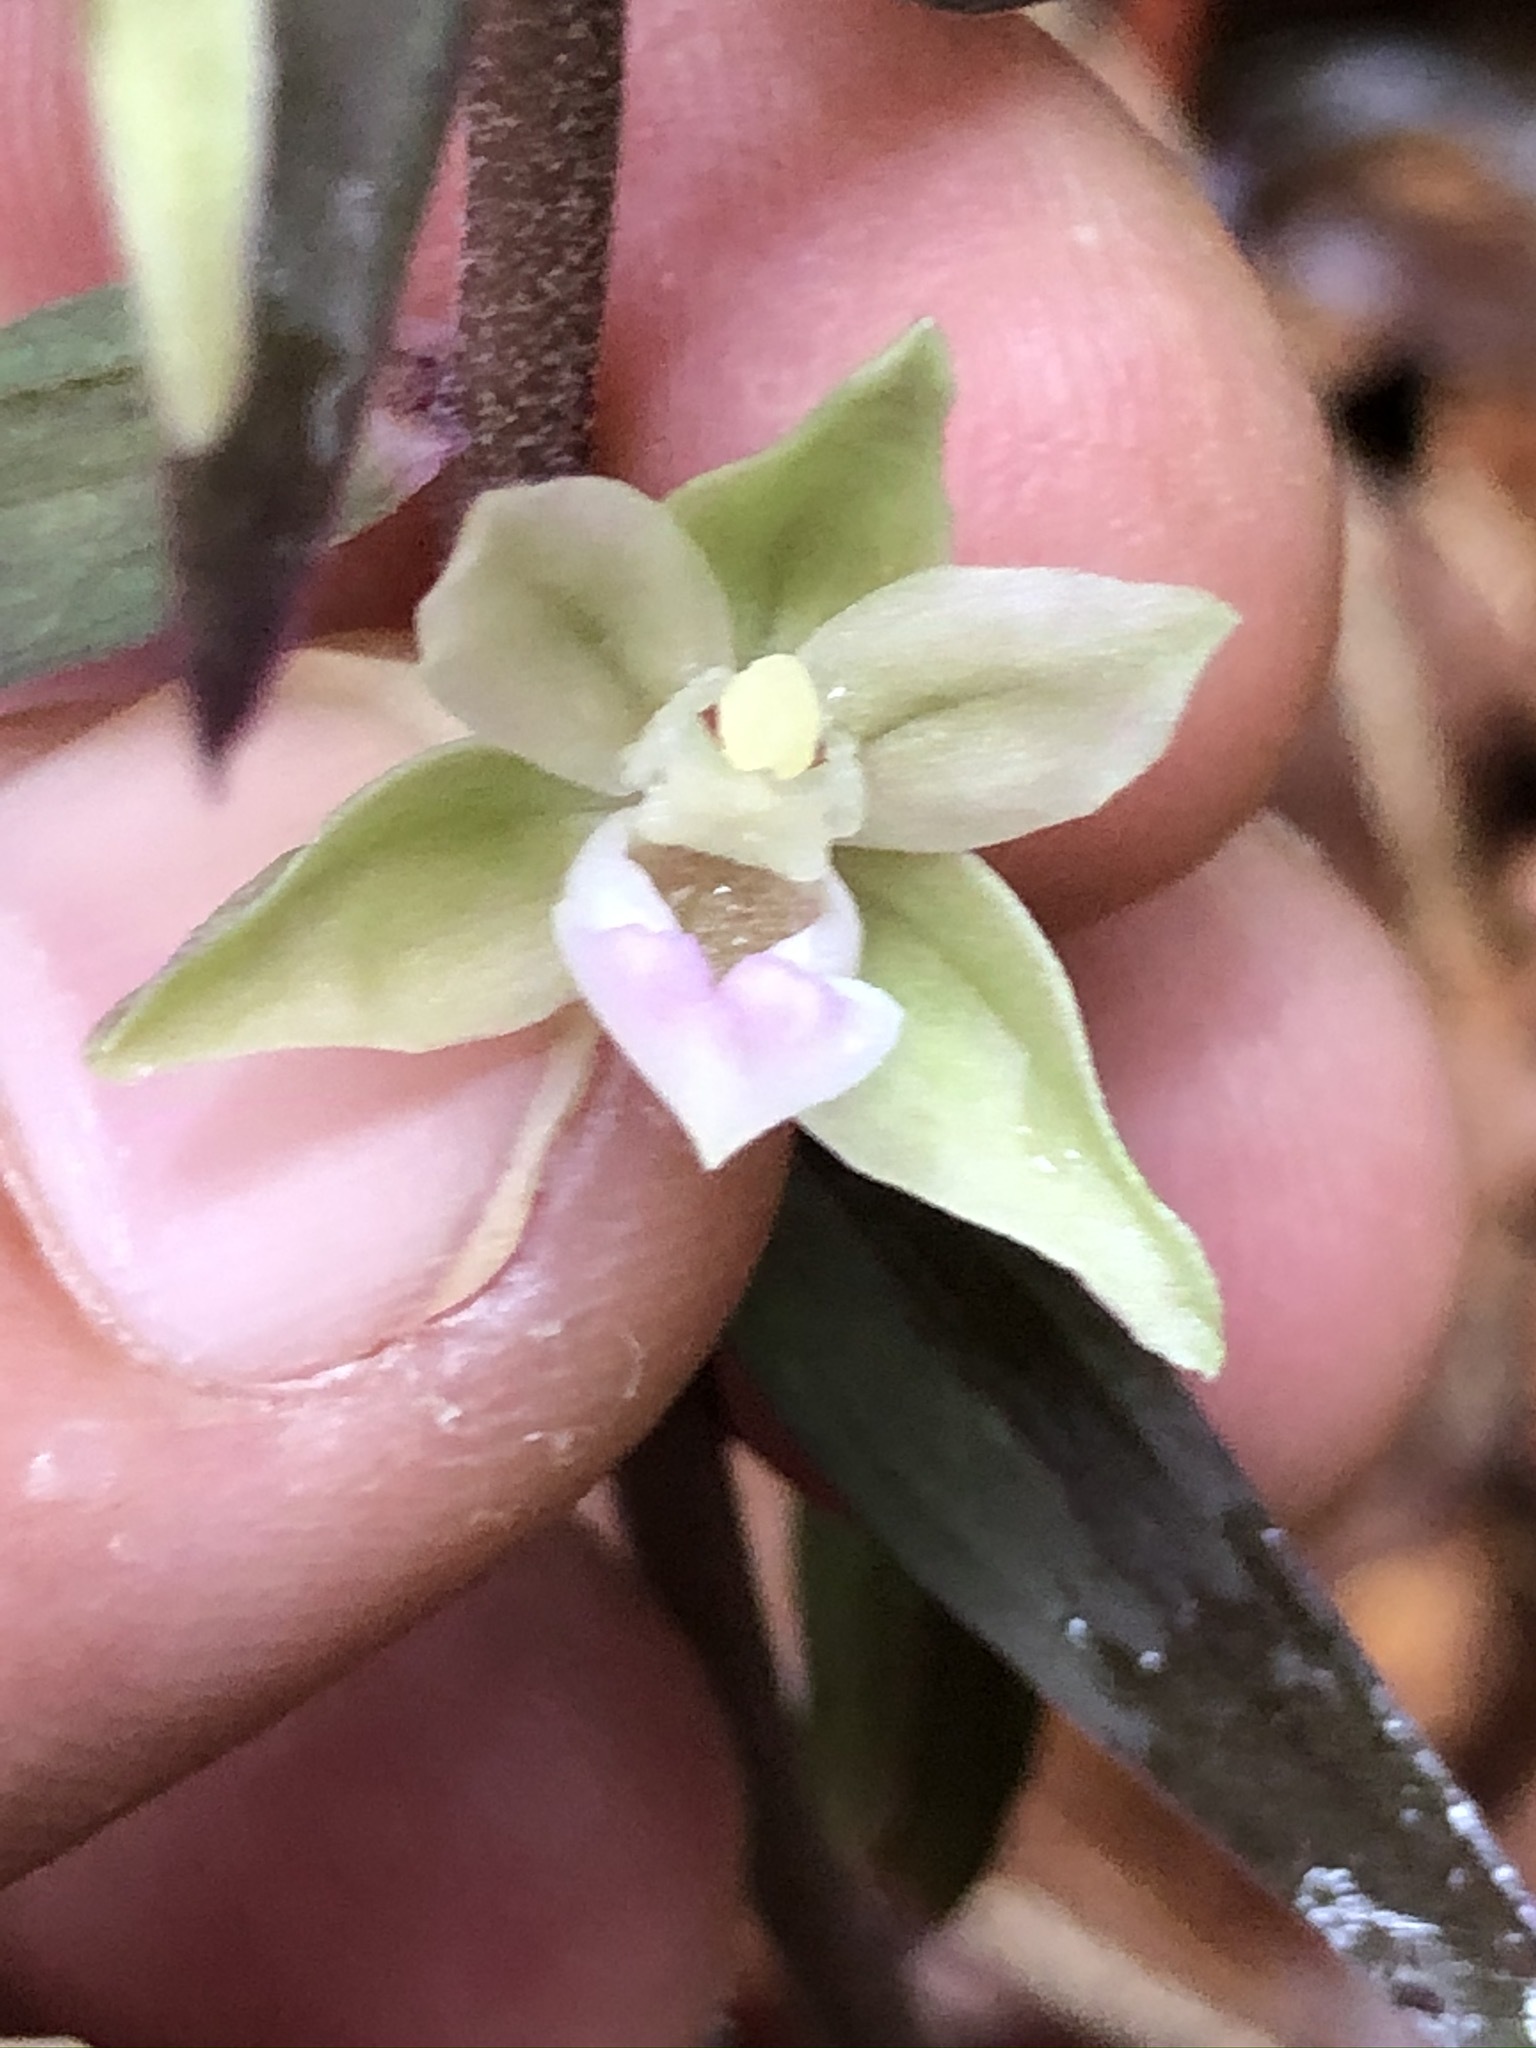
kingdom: Plantae
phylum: Tracheophyta
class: Liliopsida
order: Asparagales
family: Orchidaceae
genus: Epipactis
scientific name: Epipactis purpurata
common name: Violet helleborine
